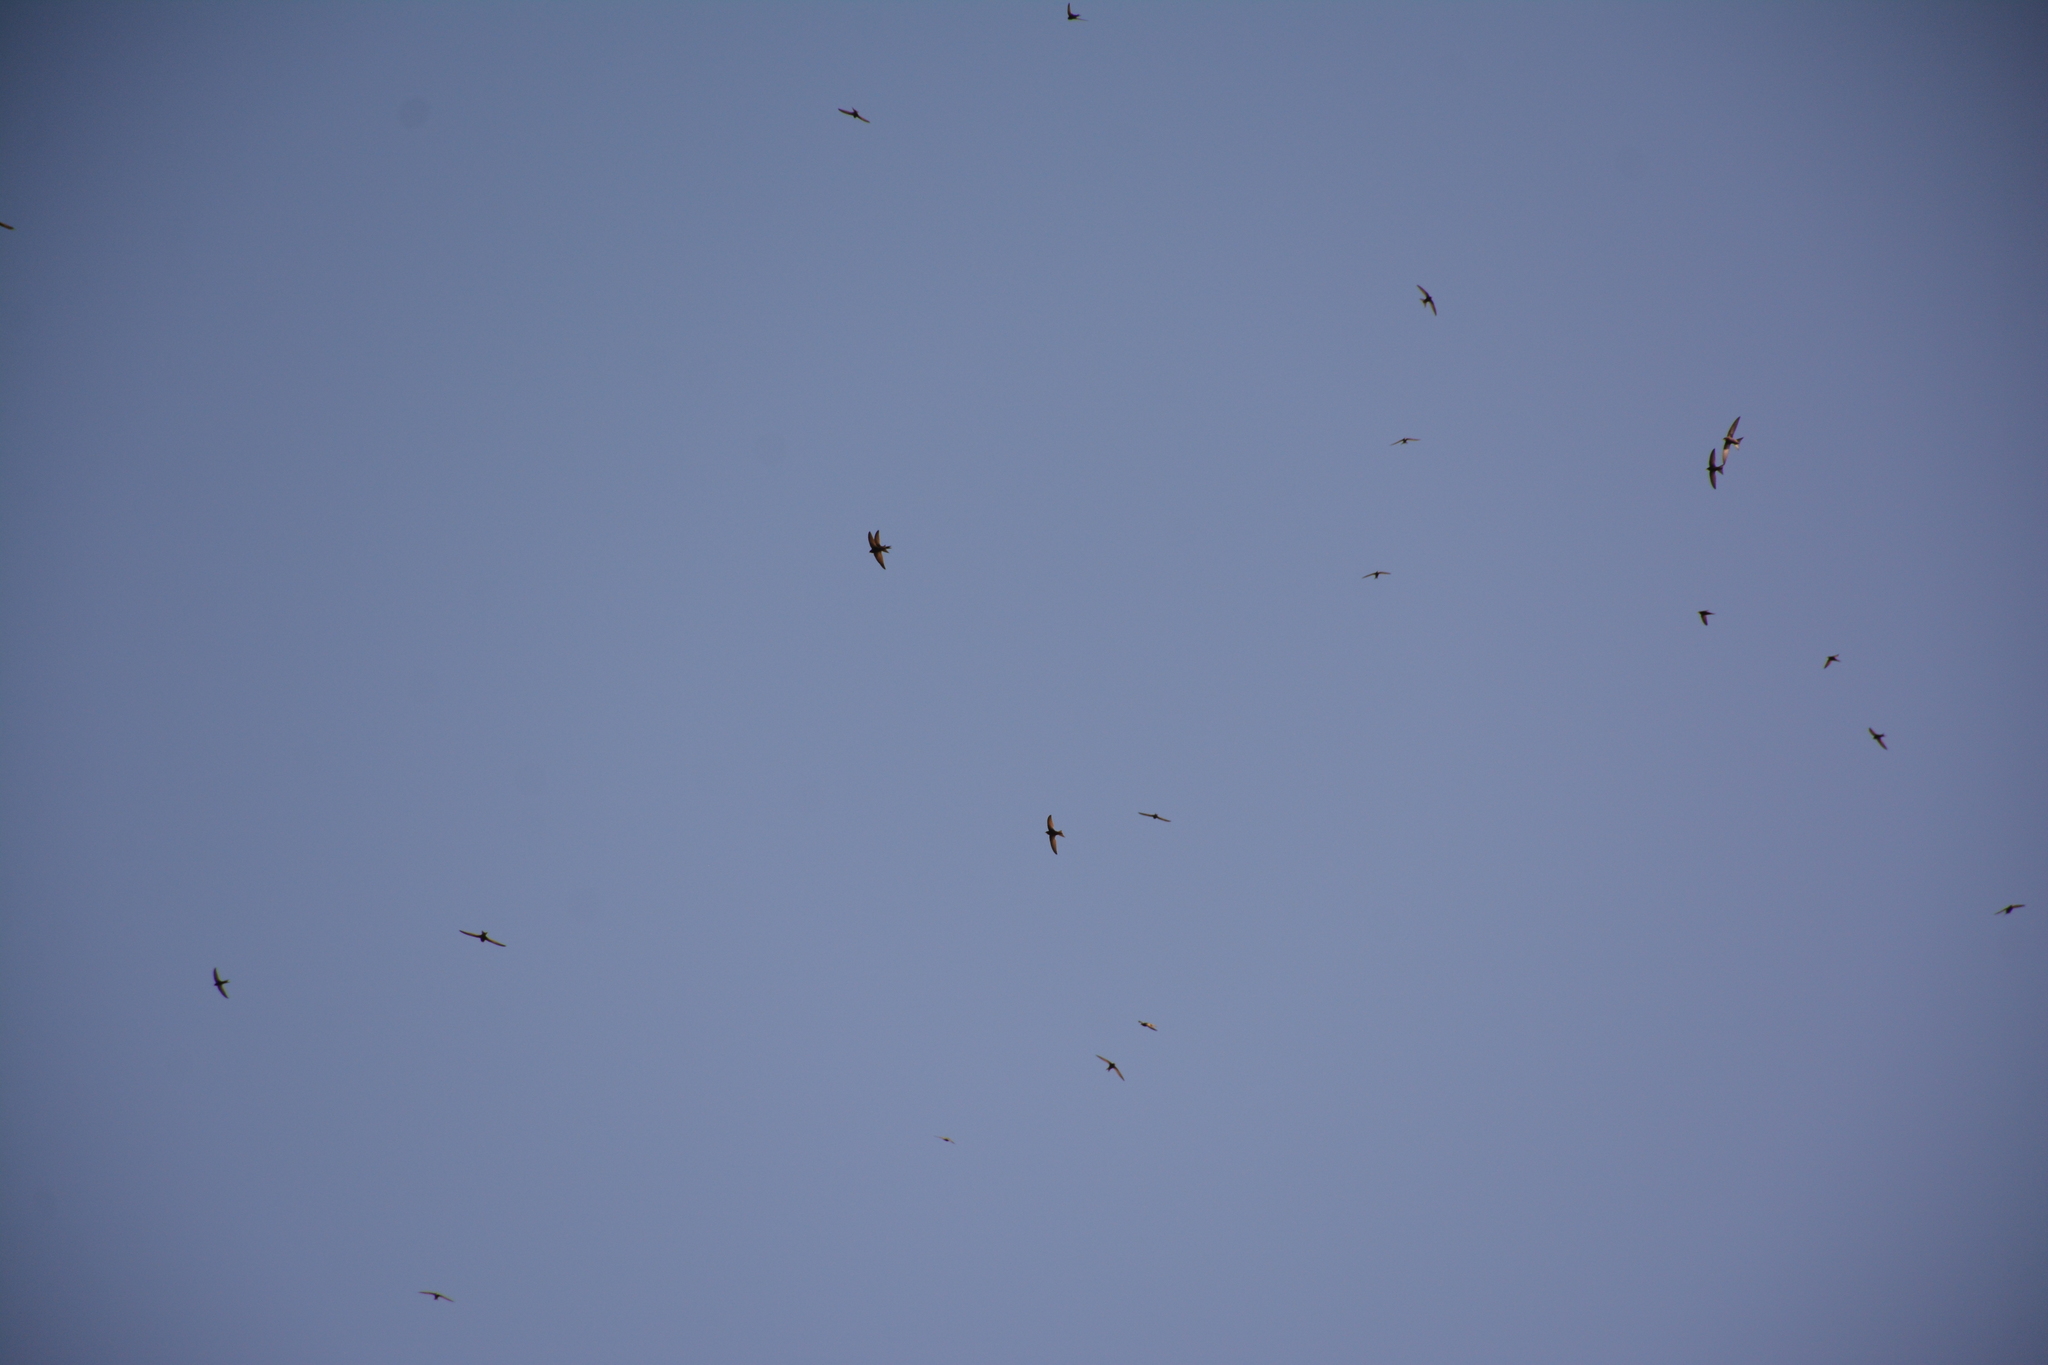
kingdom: Animalia
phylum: Chordata
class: Aves
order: Apodiformes
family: Apodidae
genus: Apus
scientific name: Apus apus
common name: Common swift
